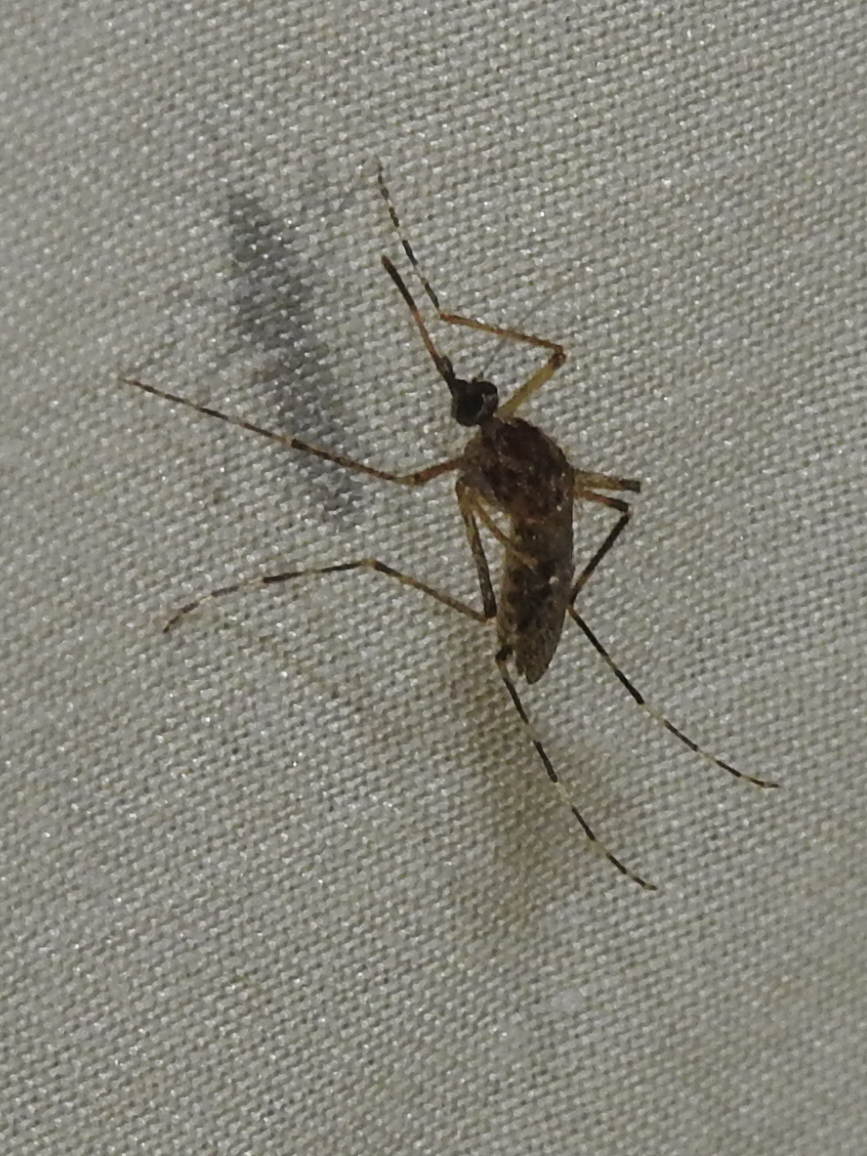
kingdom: Animalia
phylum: Arthropoda
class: Insecta
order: Diptera
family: Culicidae
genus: Coquillettidia
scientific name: Coquillettidia perturbans
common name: Cattail mosquito
